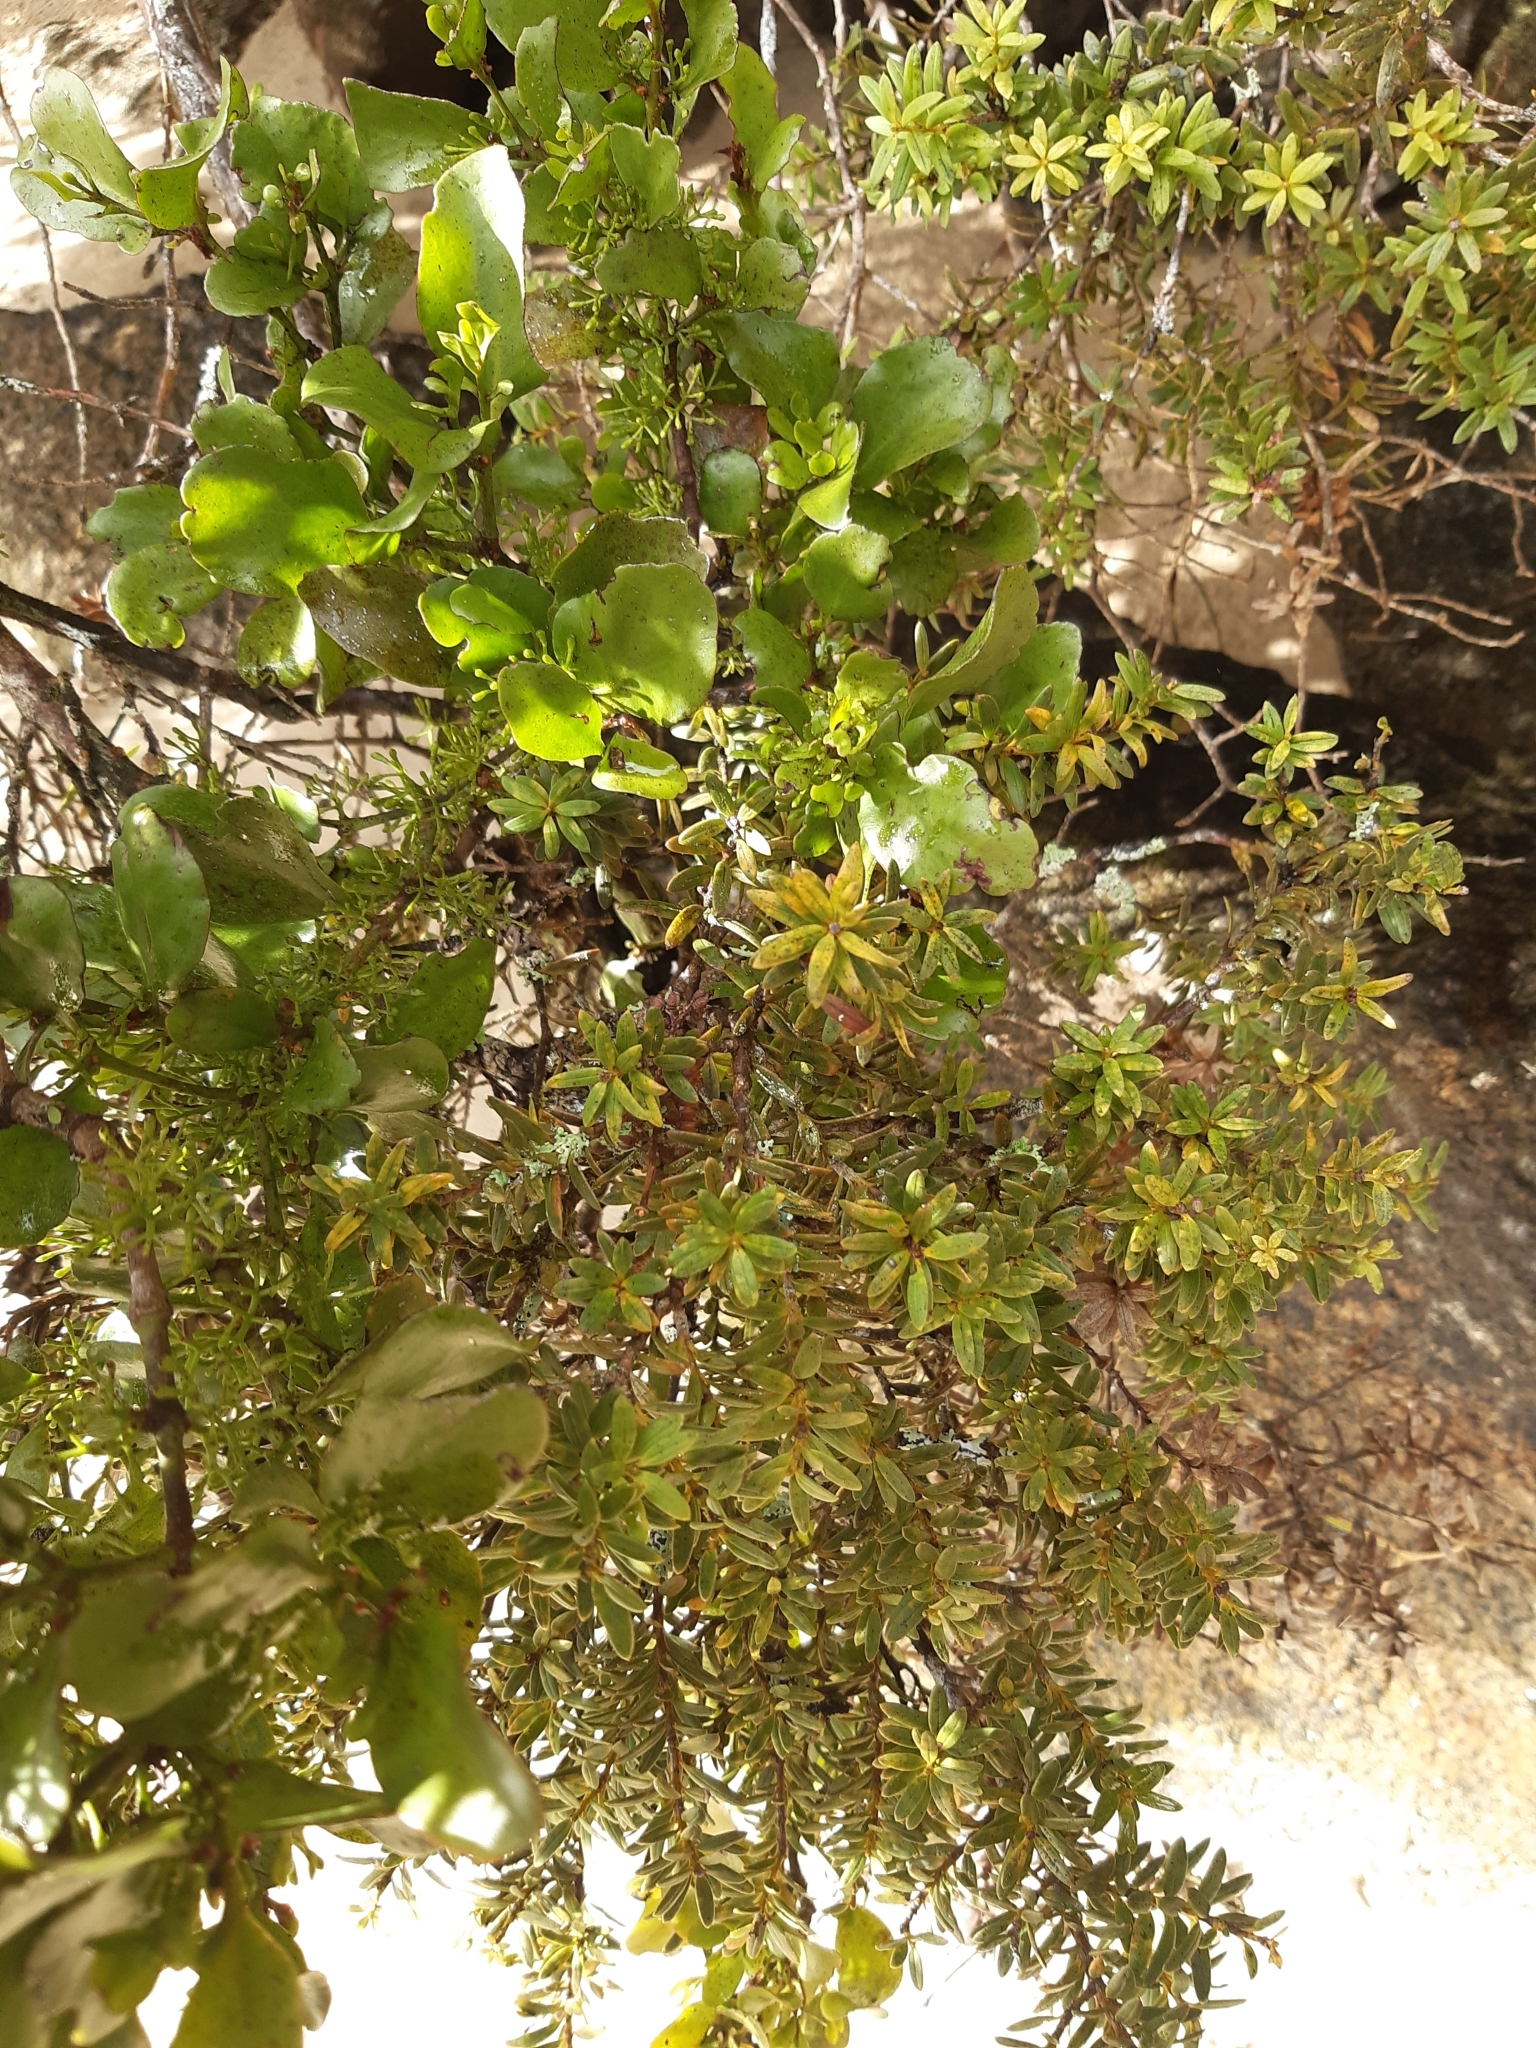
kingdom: Plantae
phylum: Tracheophyta
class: Magnoliopsida
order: Santalales
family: Loranthaceae
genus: Ileostylus
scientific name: Ileostylus micranthus
